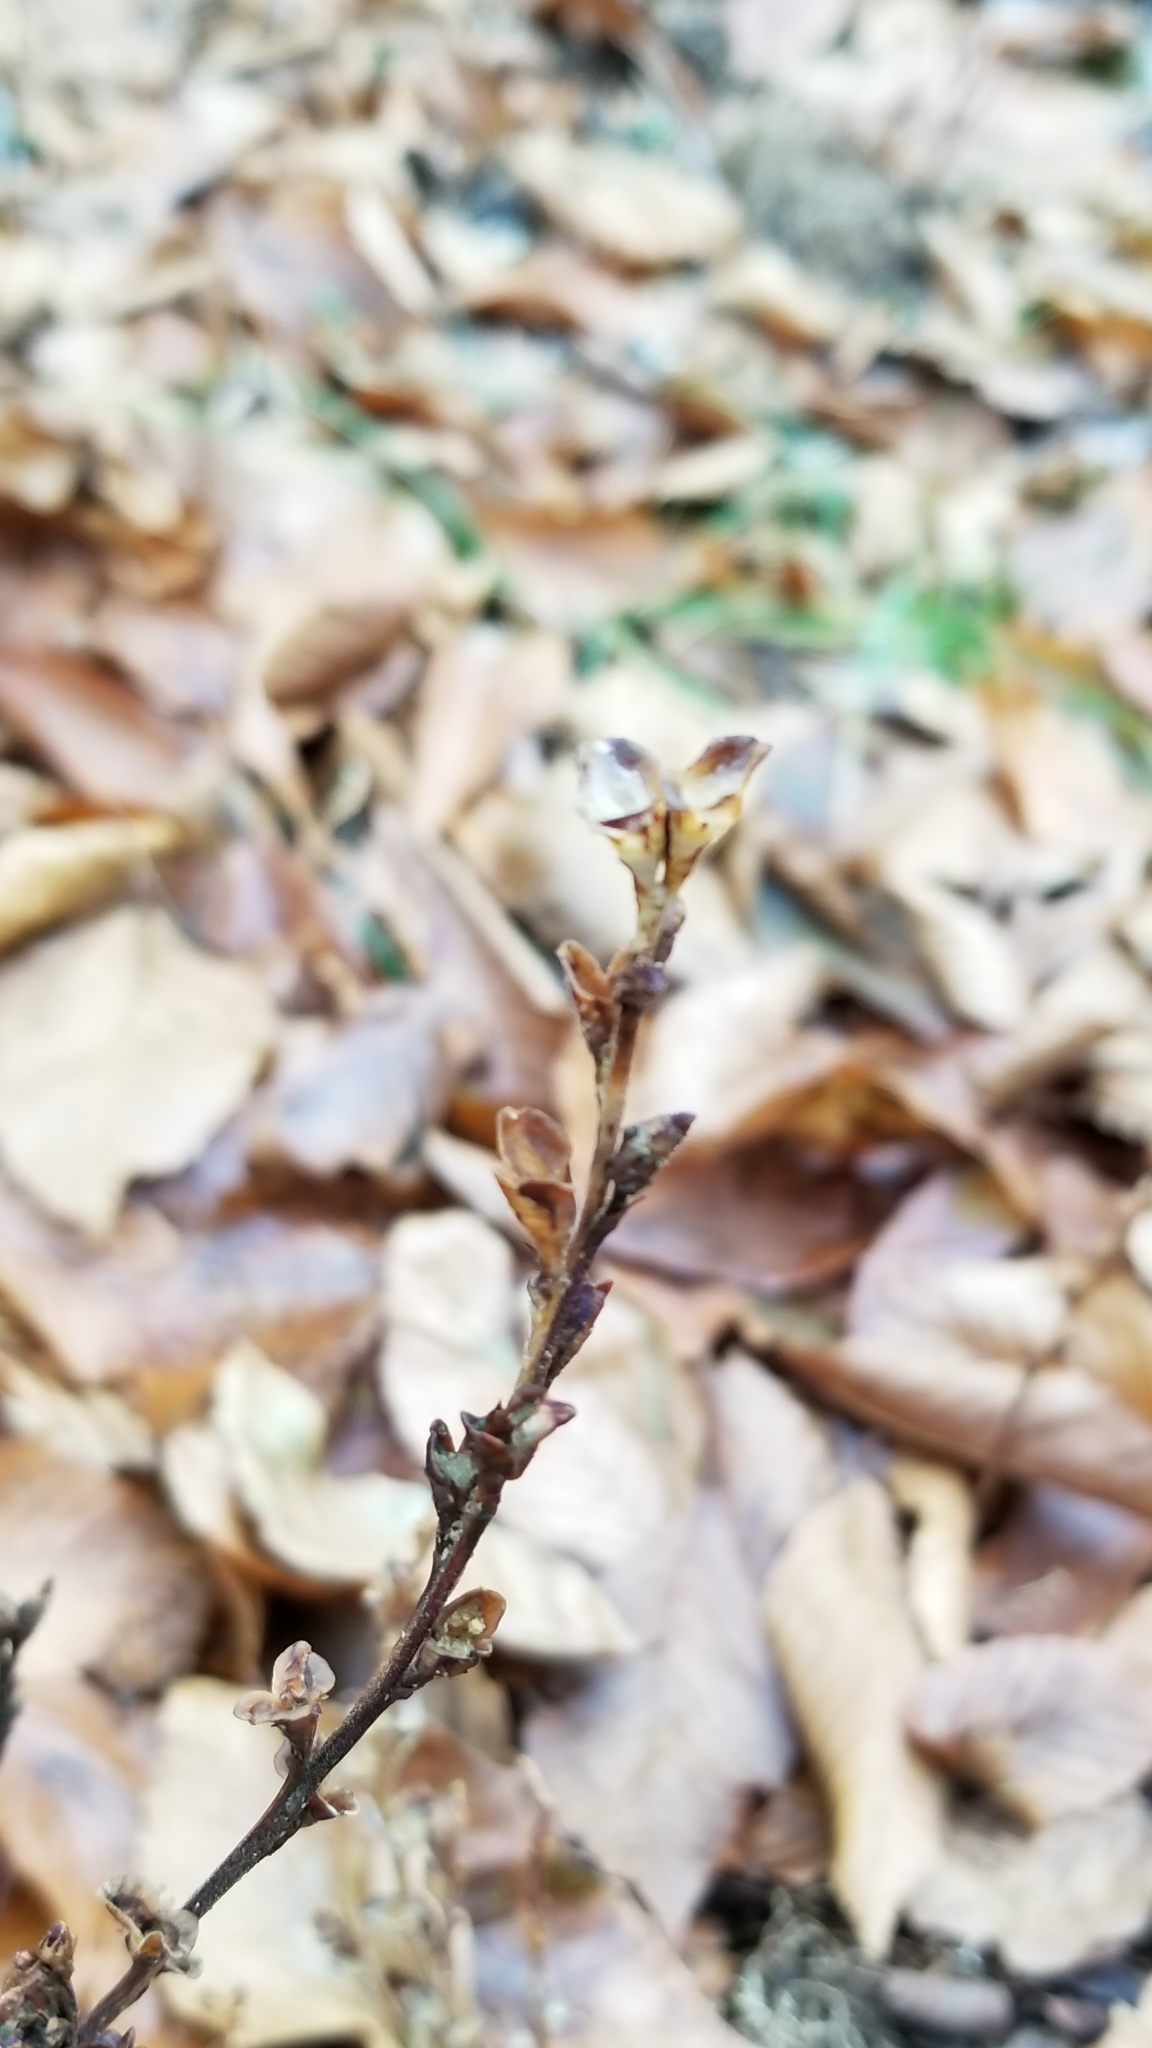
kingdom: Plantae
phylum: Tracheophyta
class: Magnoliopsida
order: Lamiales
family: Orobanchaceae
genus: Epifagus
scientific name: Epifagus virginiana
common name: Beechdrops
